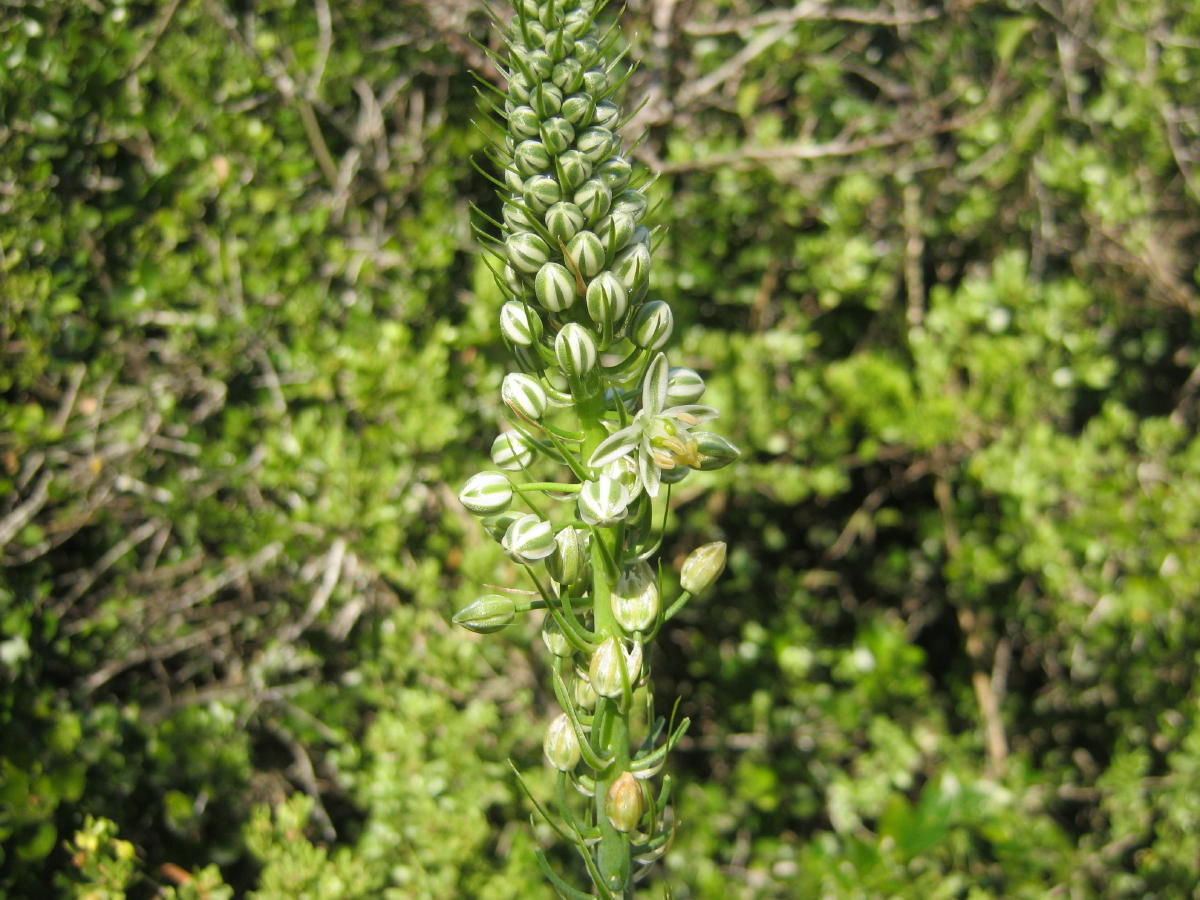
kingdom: Plantae
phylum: Tracheophyta
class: Liliopsida
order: Asparagales
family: Asparagaceae
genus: Albuca
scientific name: Albuca bracteata
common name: Sea-onion
